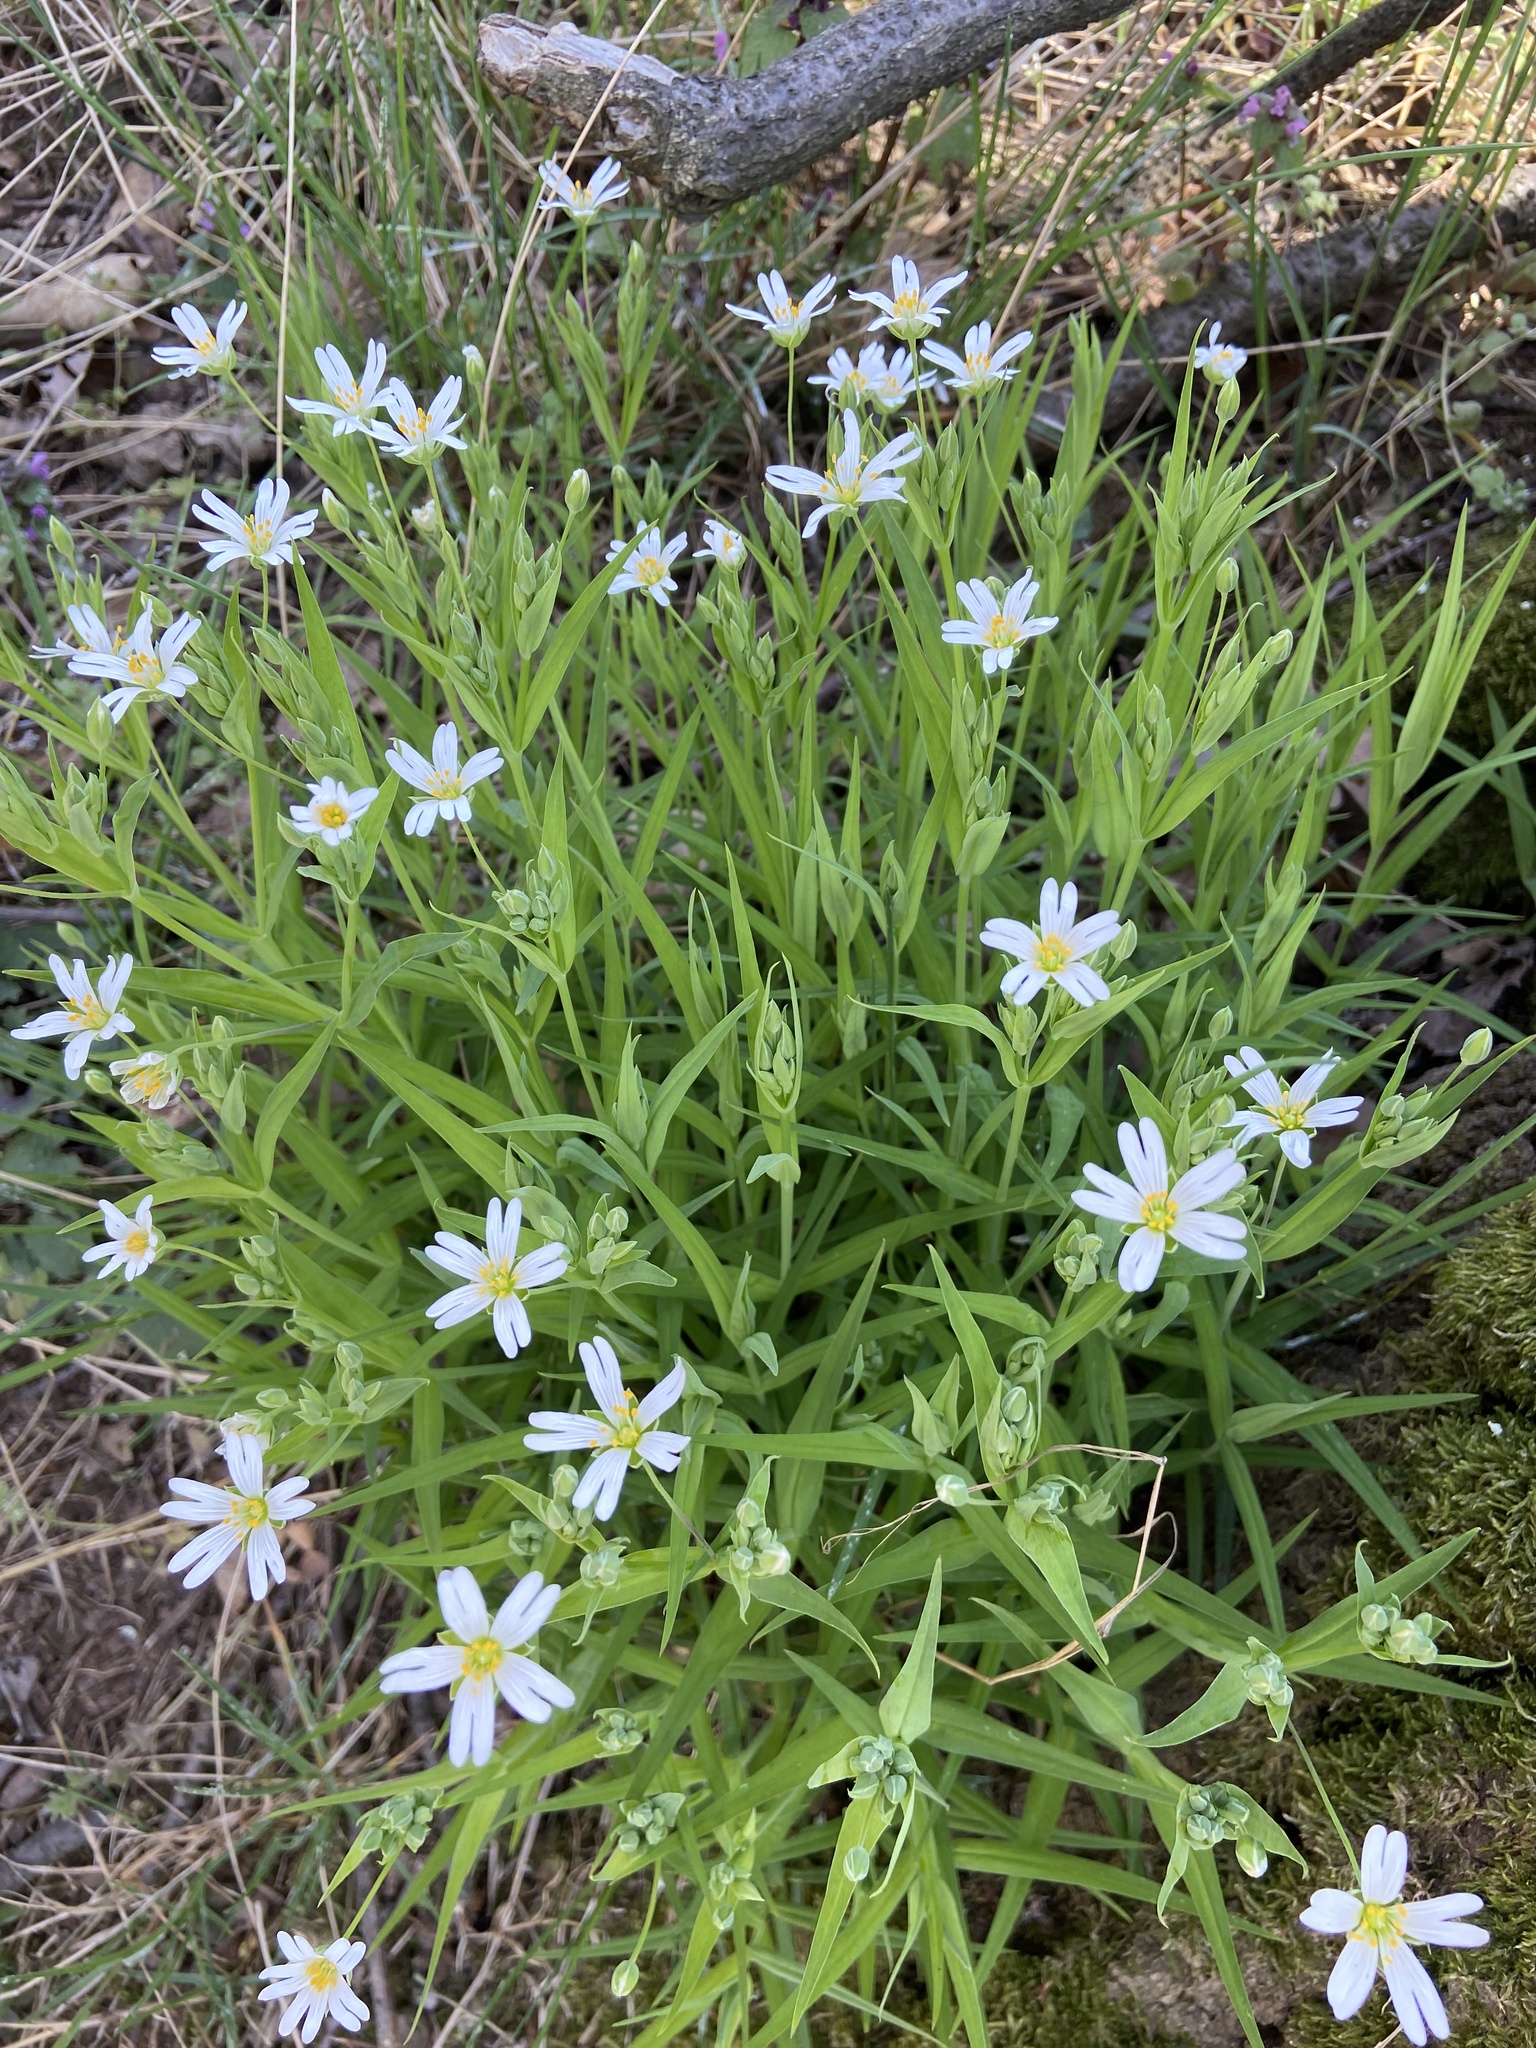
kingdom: Plantae
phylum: Tracheophyta
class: Magnoliopsida
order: Caryophyllales
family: Caryophyllaceae
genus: Rabelera
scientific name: Rabelera holostea
